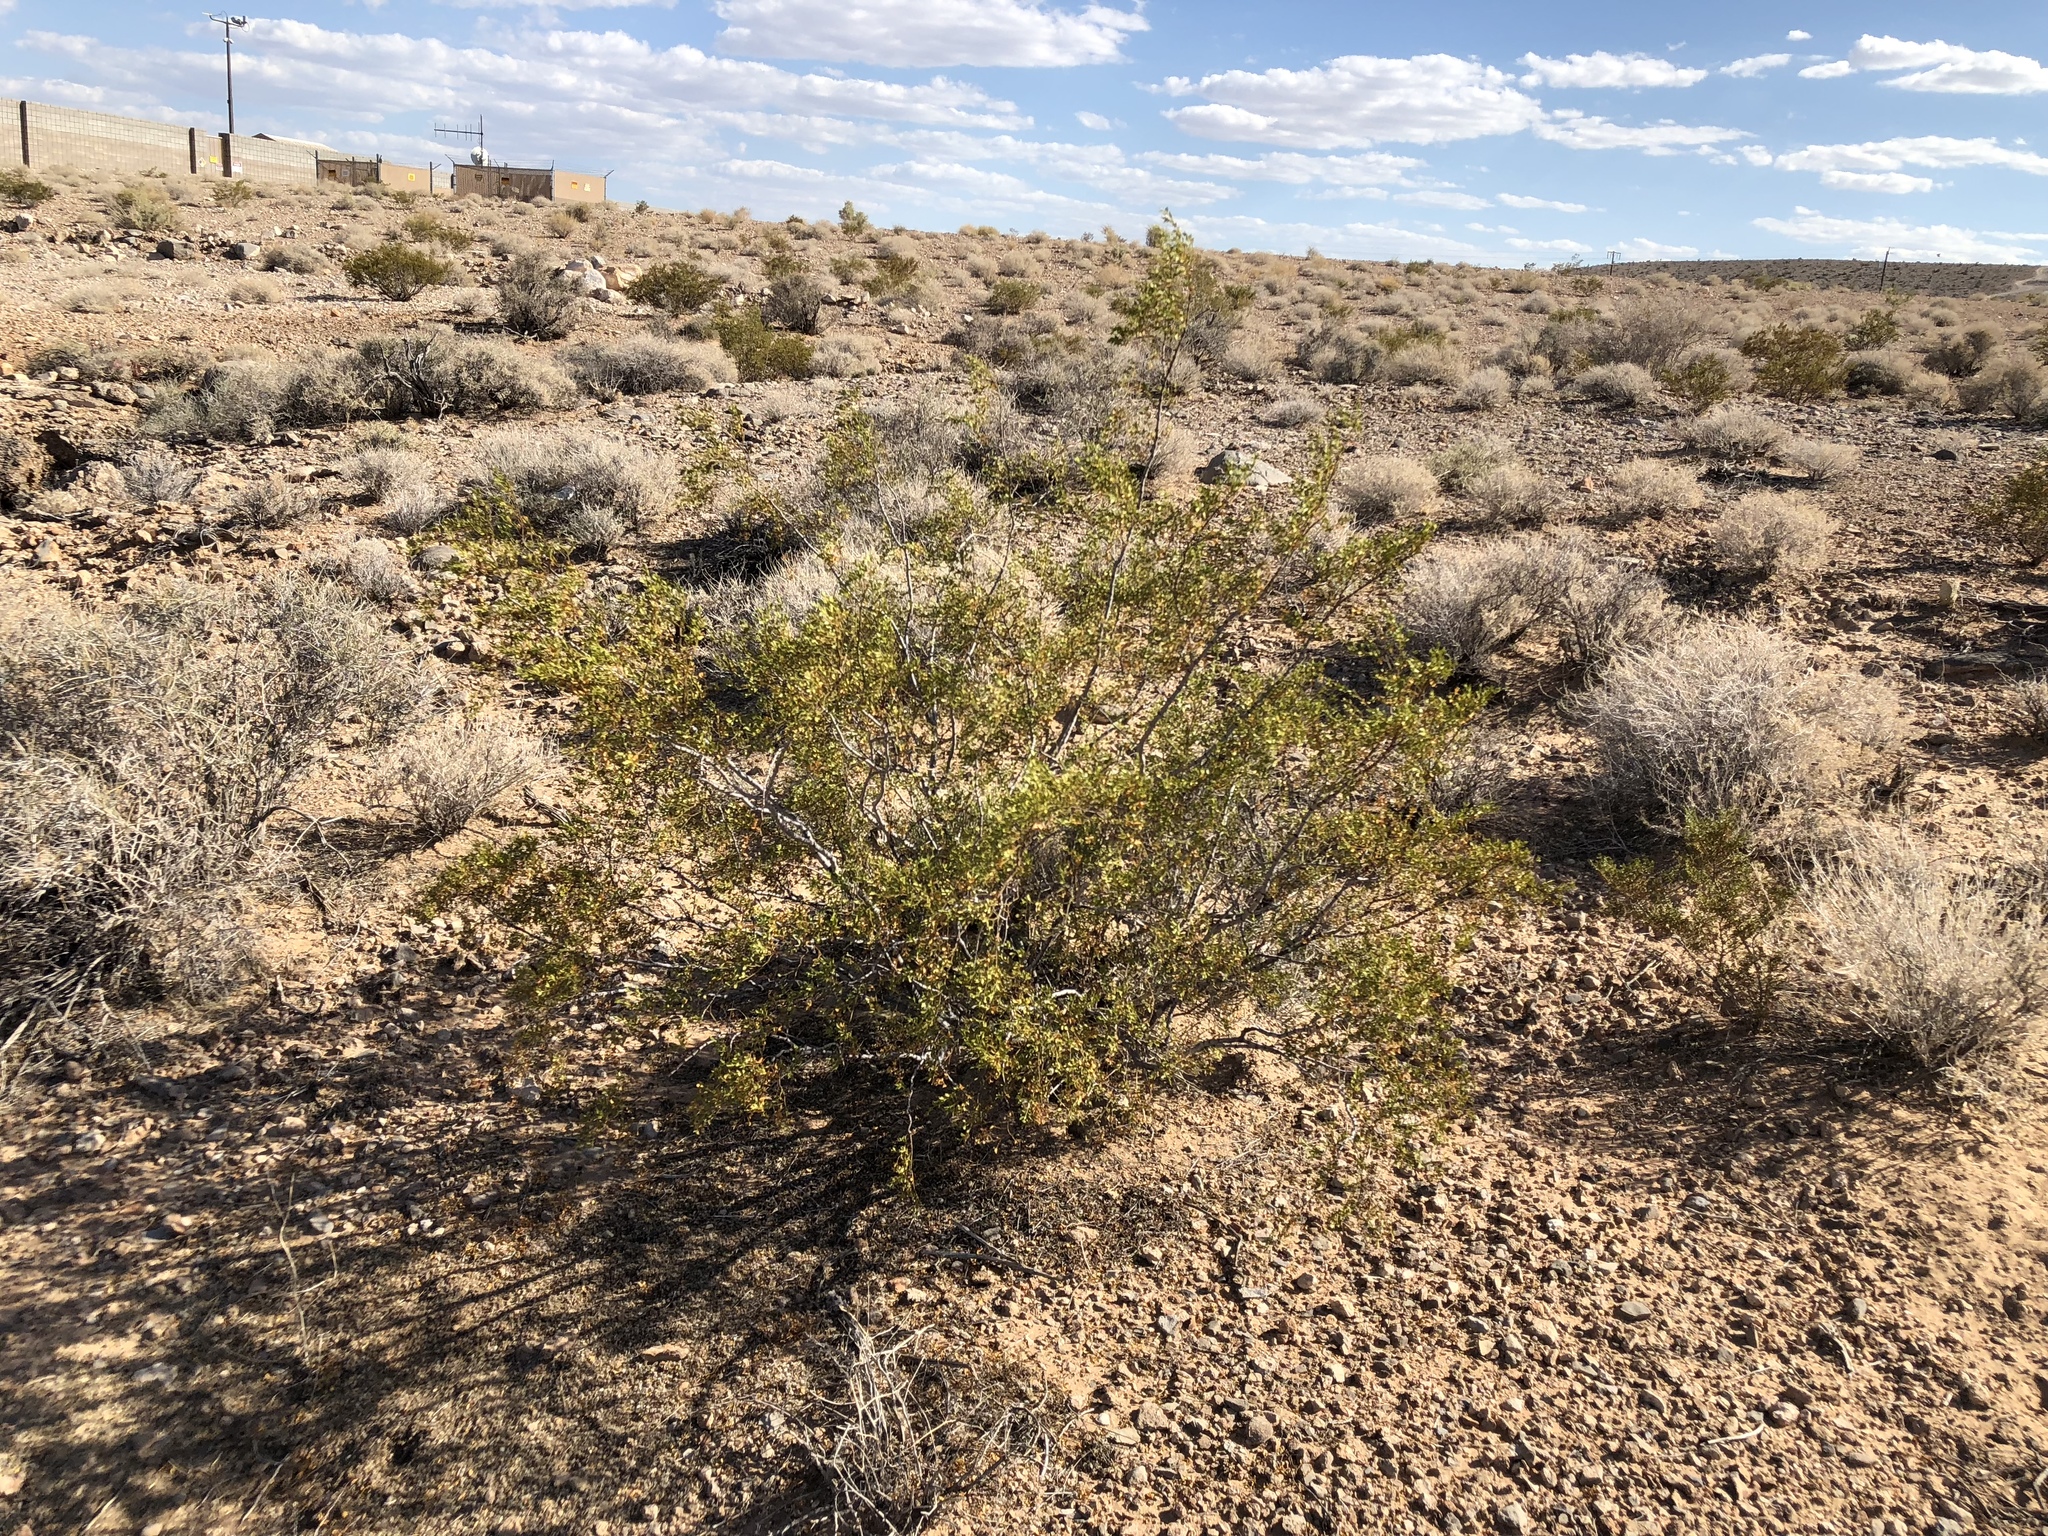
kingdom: Plantae
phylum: Tracheophyta
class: Magnoliopsida
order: Zygophyllales
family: Zygophyllaceae
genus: Larrea
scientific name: Larrea tridentata
